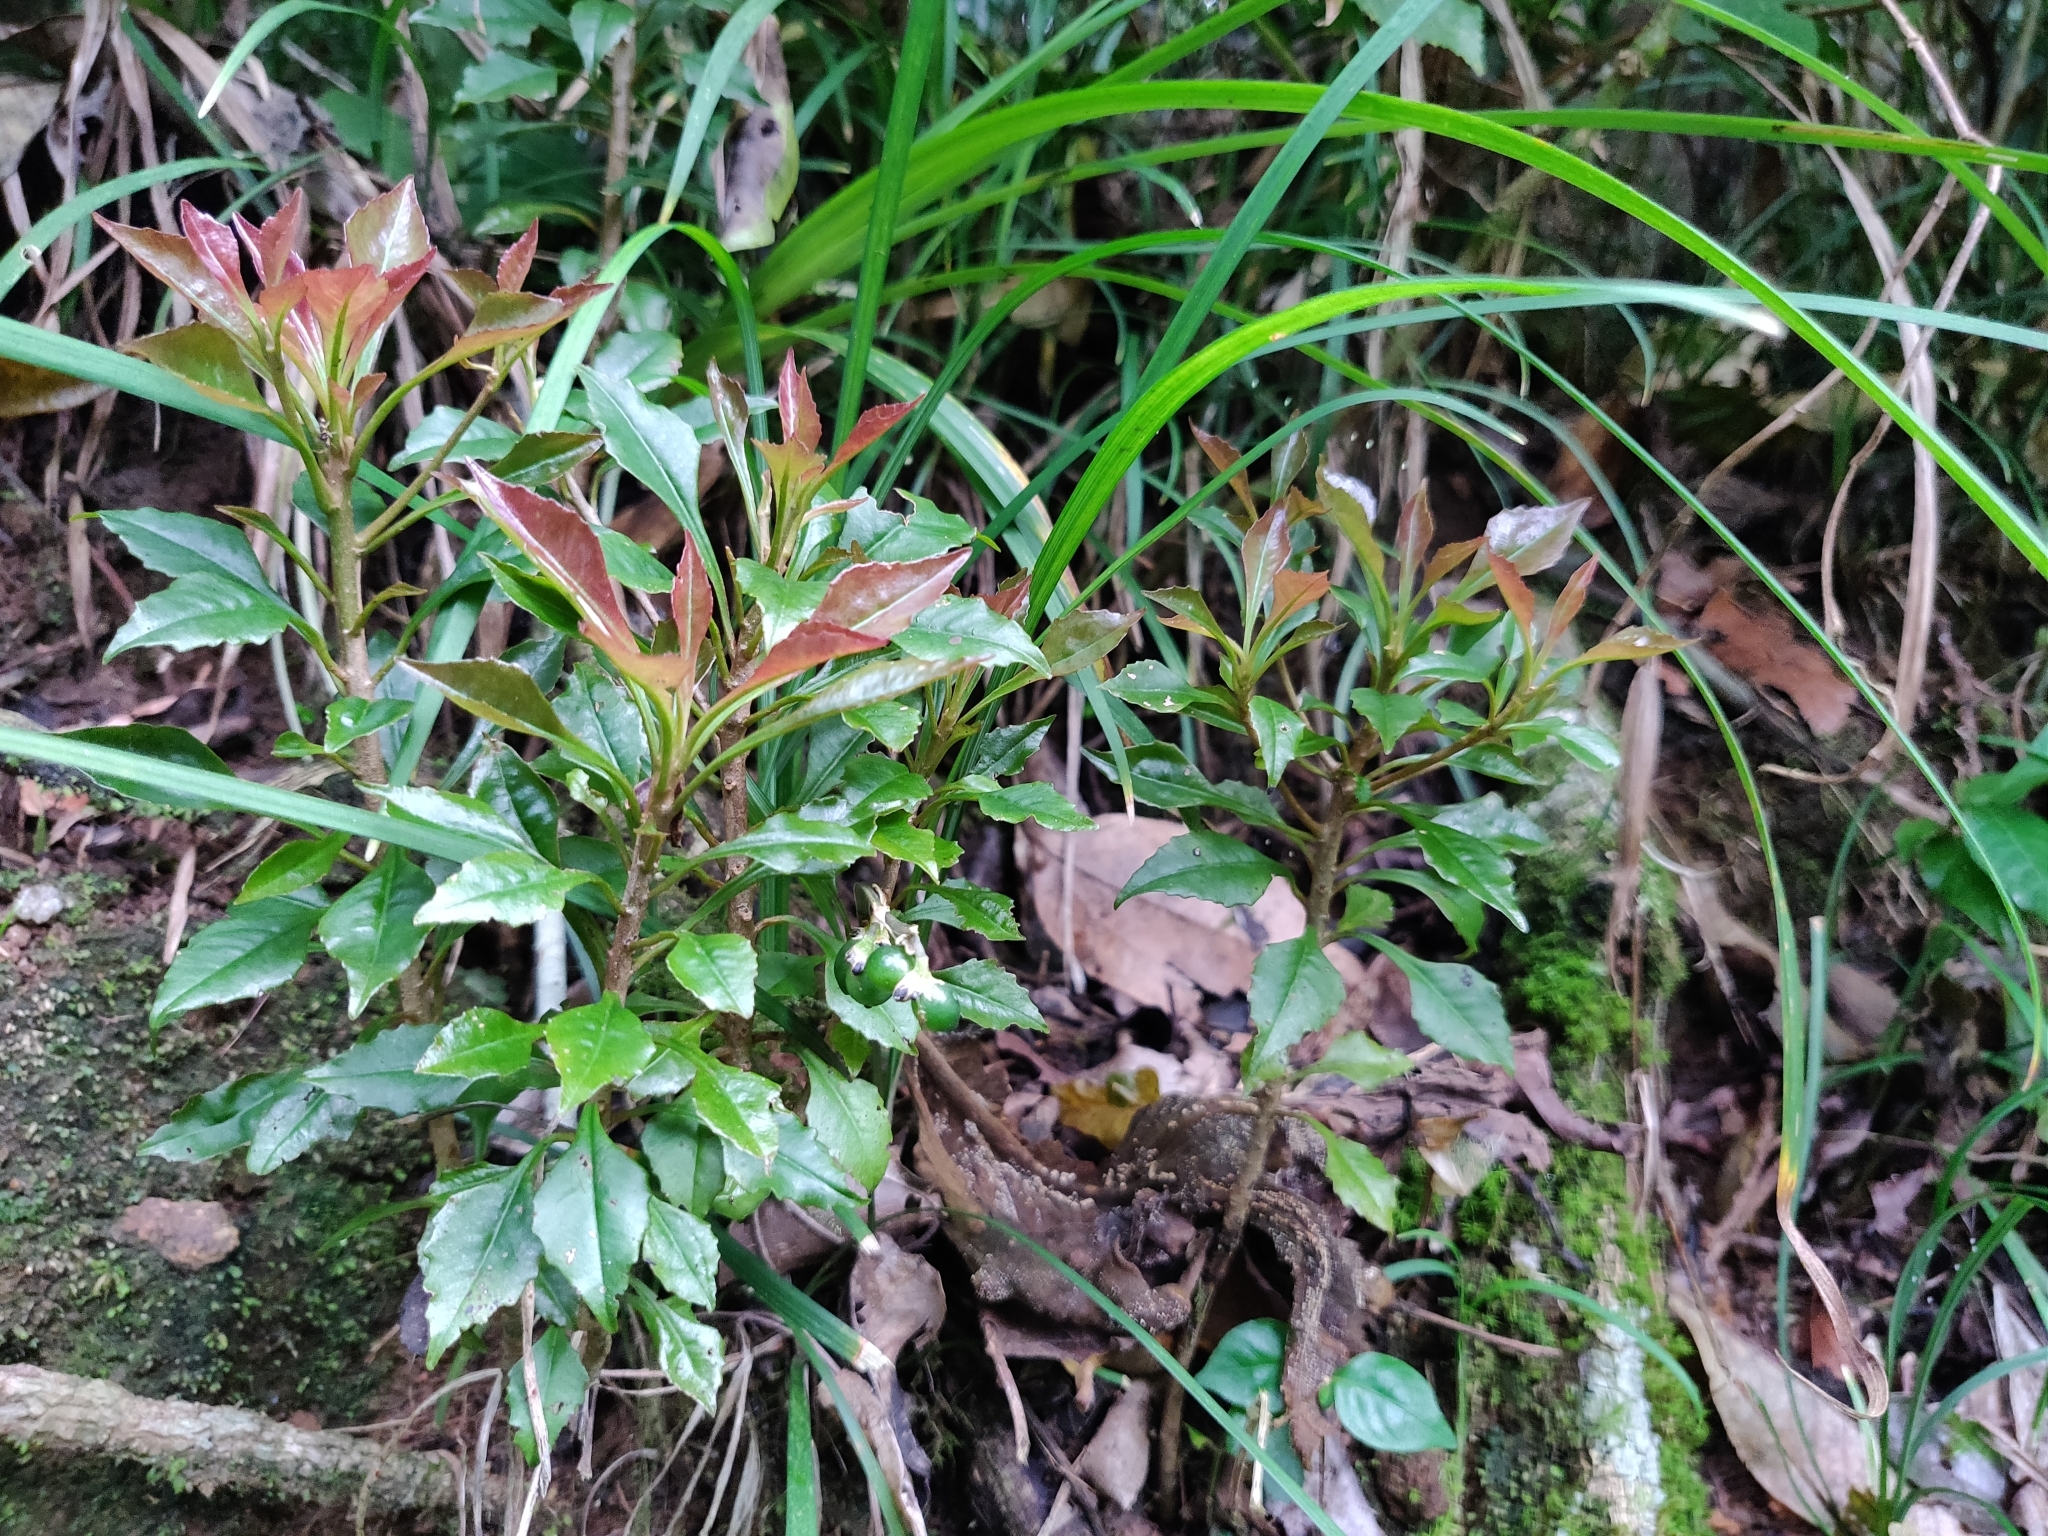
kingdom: Plantae
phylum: Tracheophyta
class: Magnoliopsida
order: Ericales
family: Primulaceae
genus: Ardisia
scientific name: Ardisia pauciflora
